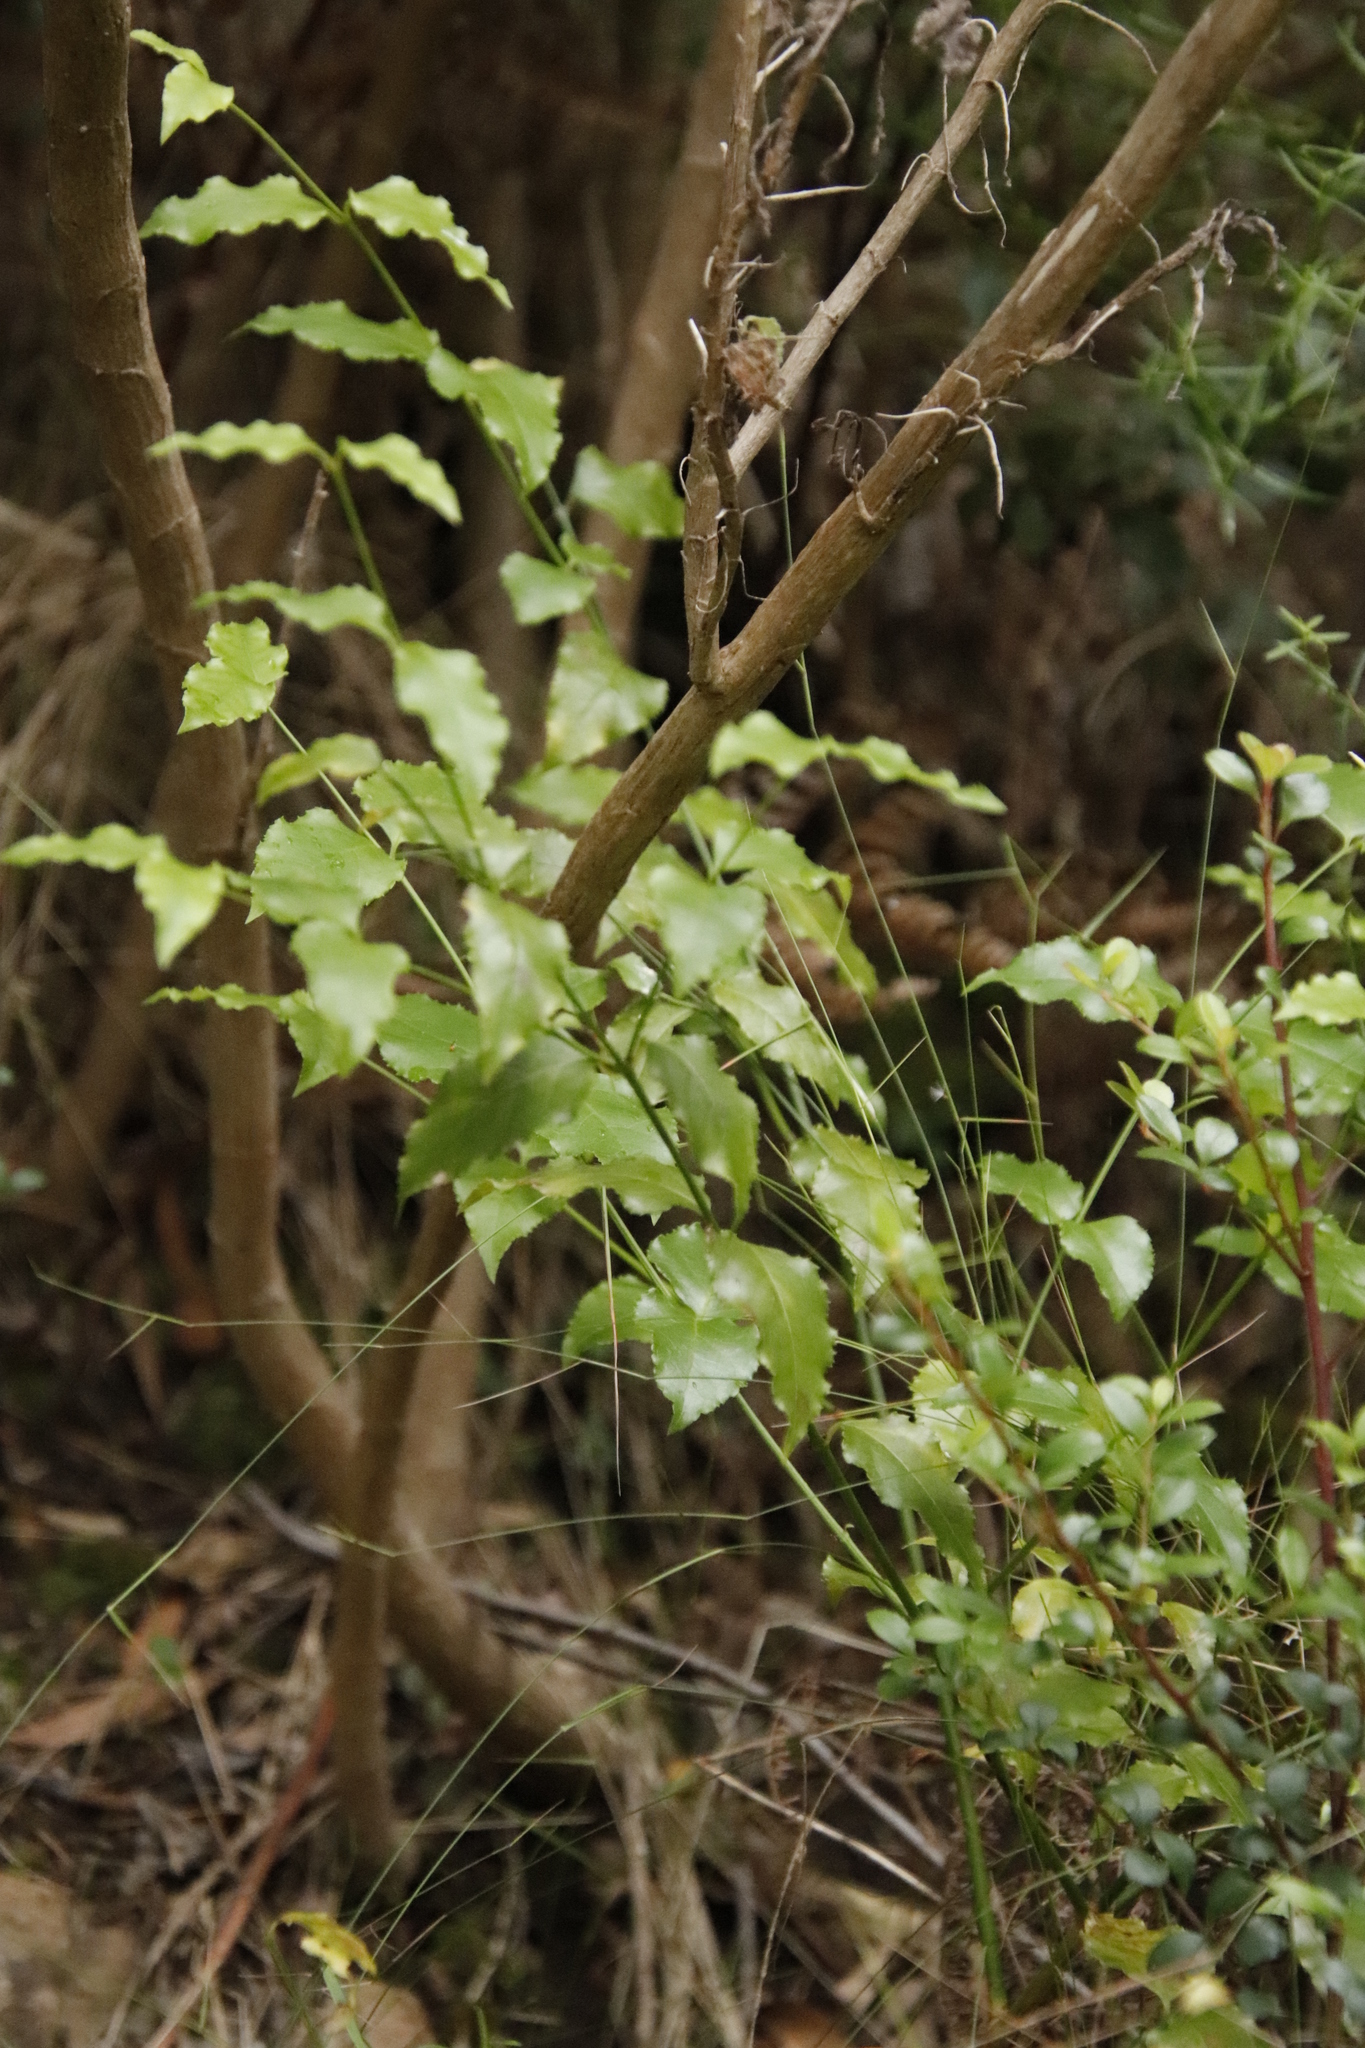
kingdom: Plantae
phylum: Tracheophyta
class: Magnoliopsida
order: Lamiales
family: Stilbaceae
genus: Halleria
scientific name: Halleria lucida
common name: Tree fuschia
